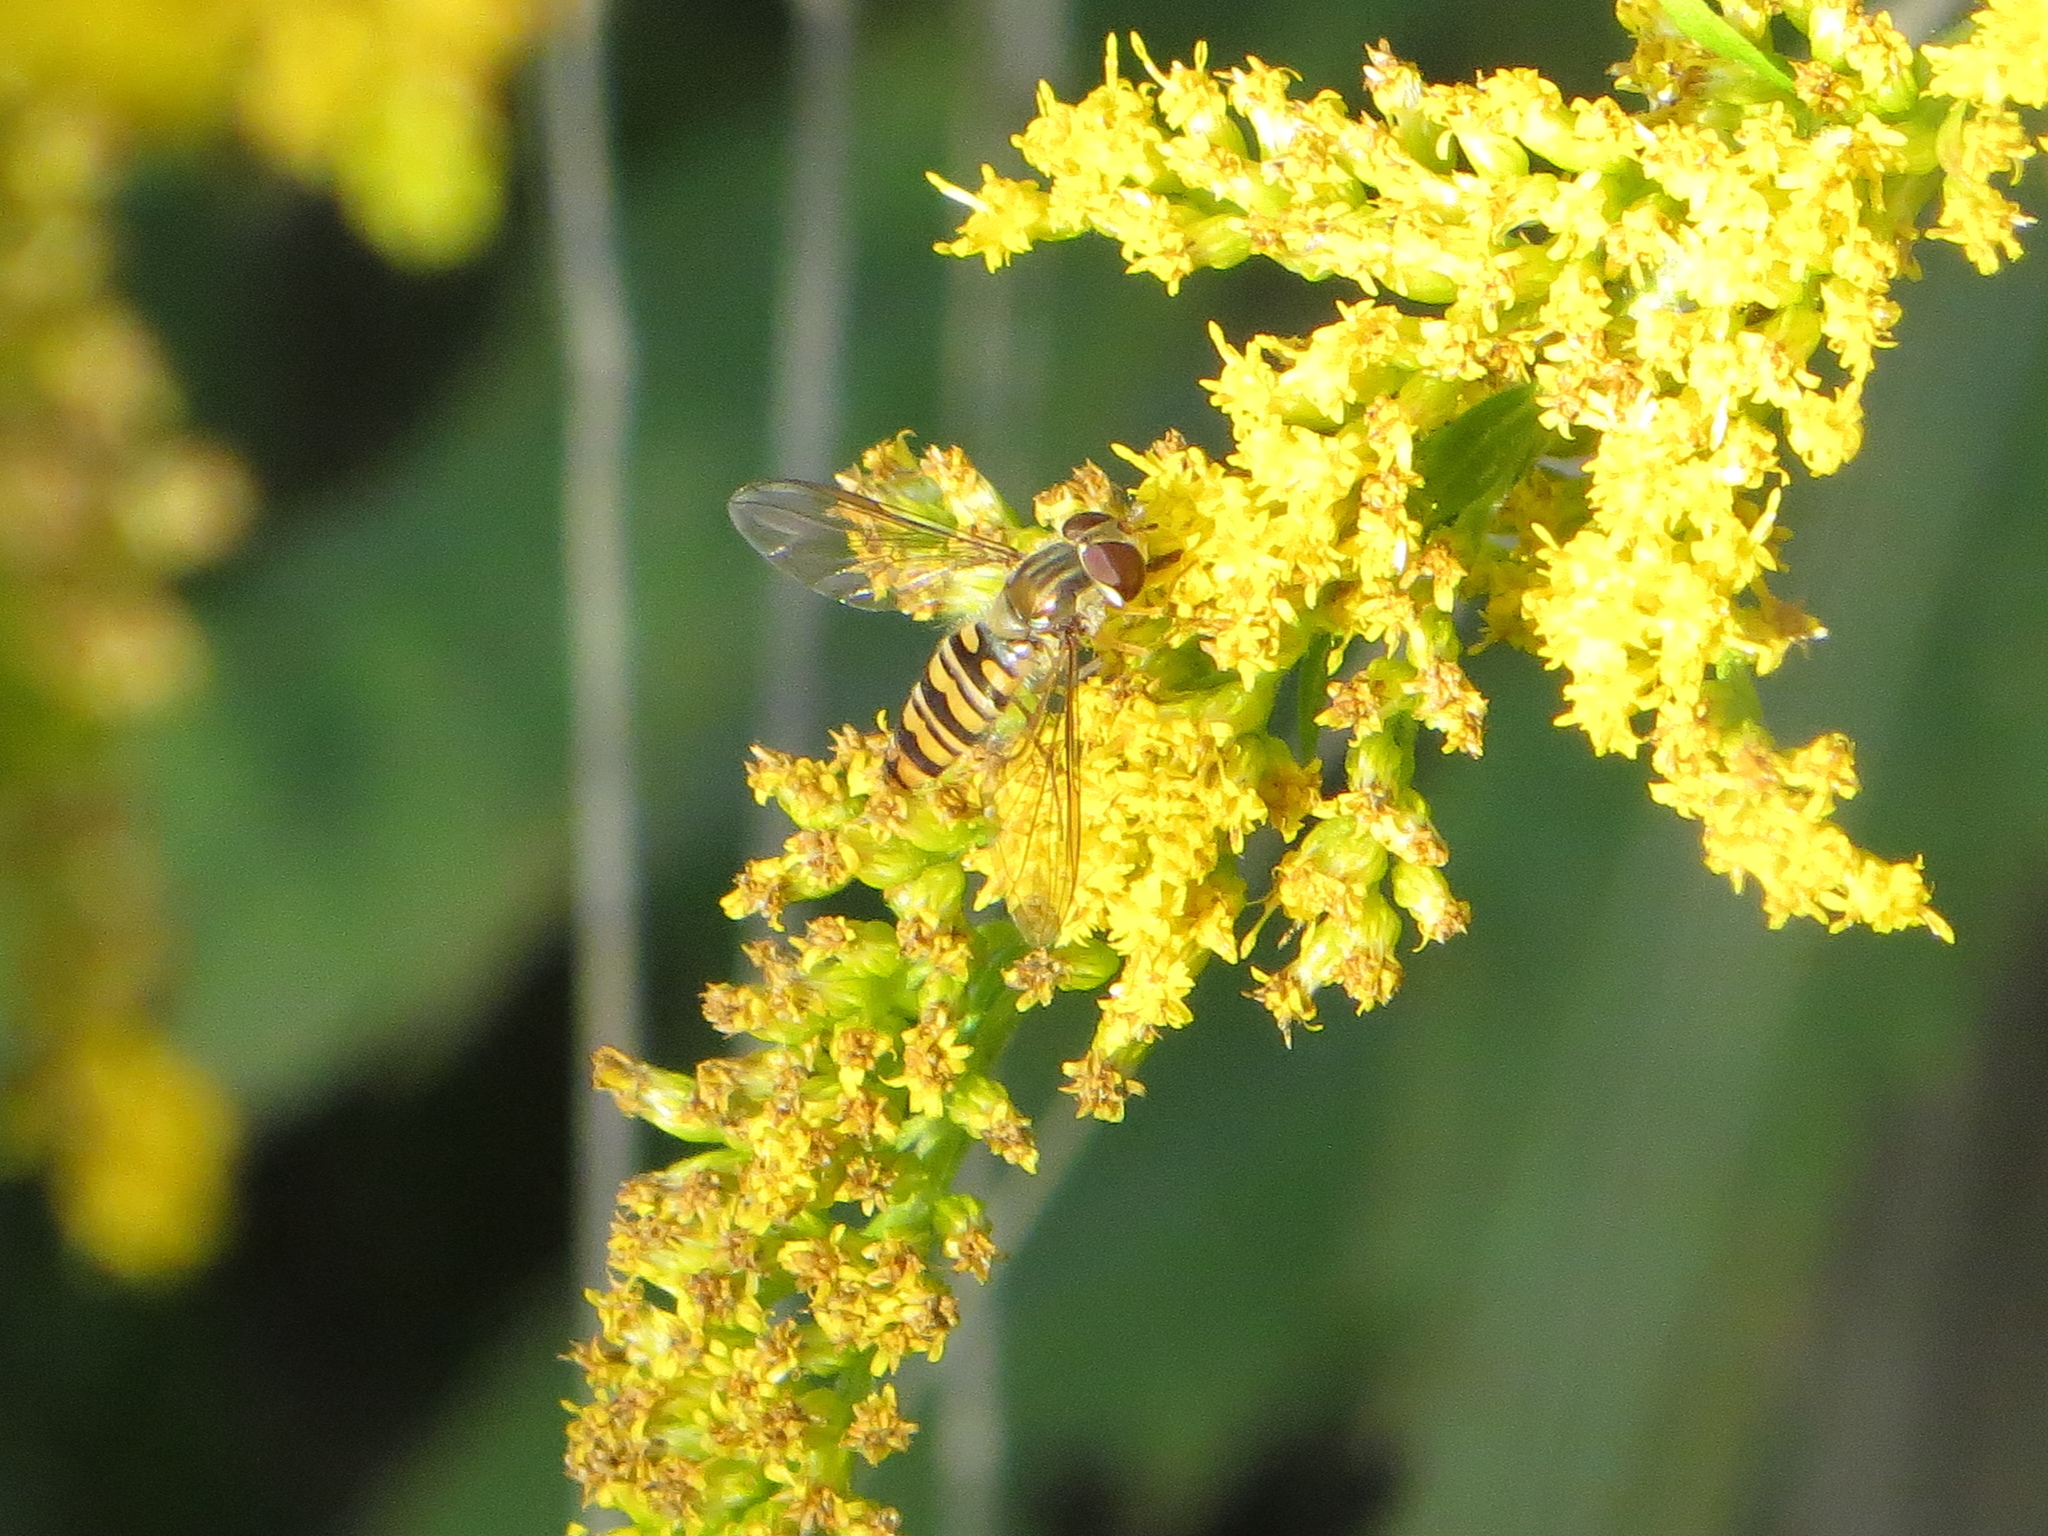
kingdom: Animalia
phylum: Arthropoda
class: Insecta
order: Diptera
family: Syrphidae
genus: Episyrphus
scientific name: Episyrphus balteatus
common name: Marmalade hoverfly
